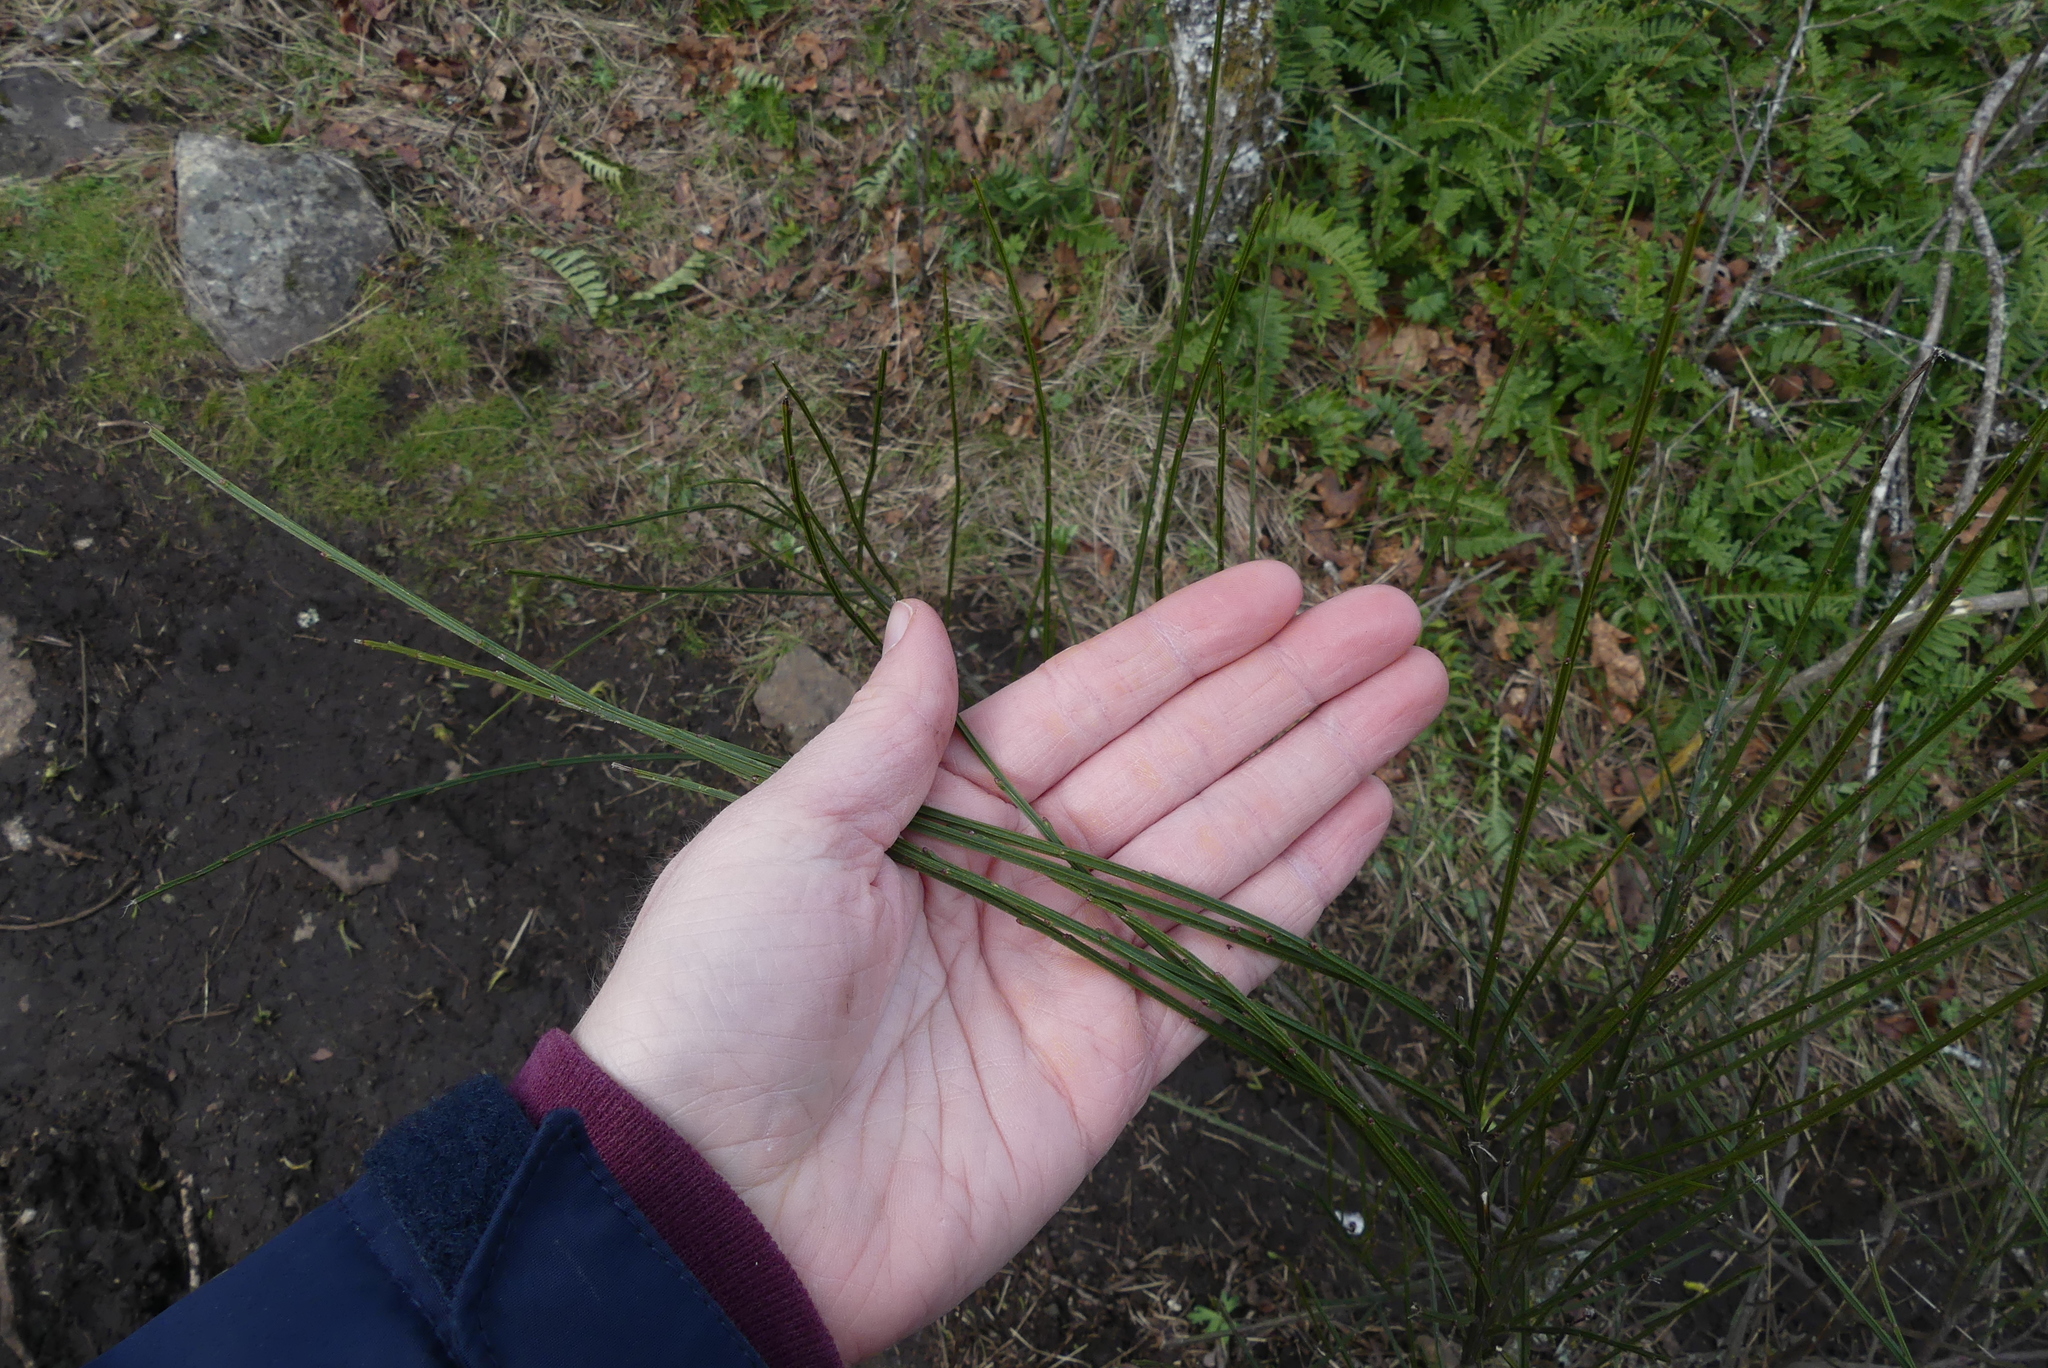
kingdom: Plantae
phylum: Tracheophyta
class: Magnoliopsida
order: Fabales
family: Fabaceae
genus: Cytisus
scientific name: Cytisus scoparius
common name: Scotch broom
